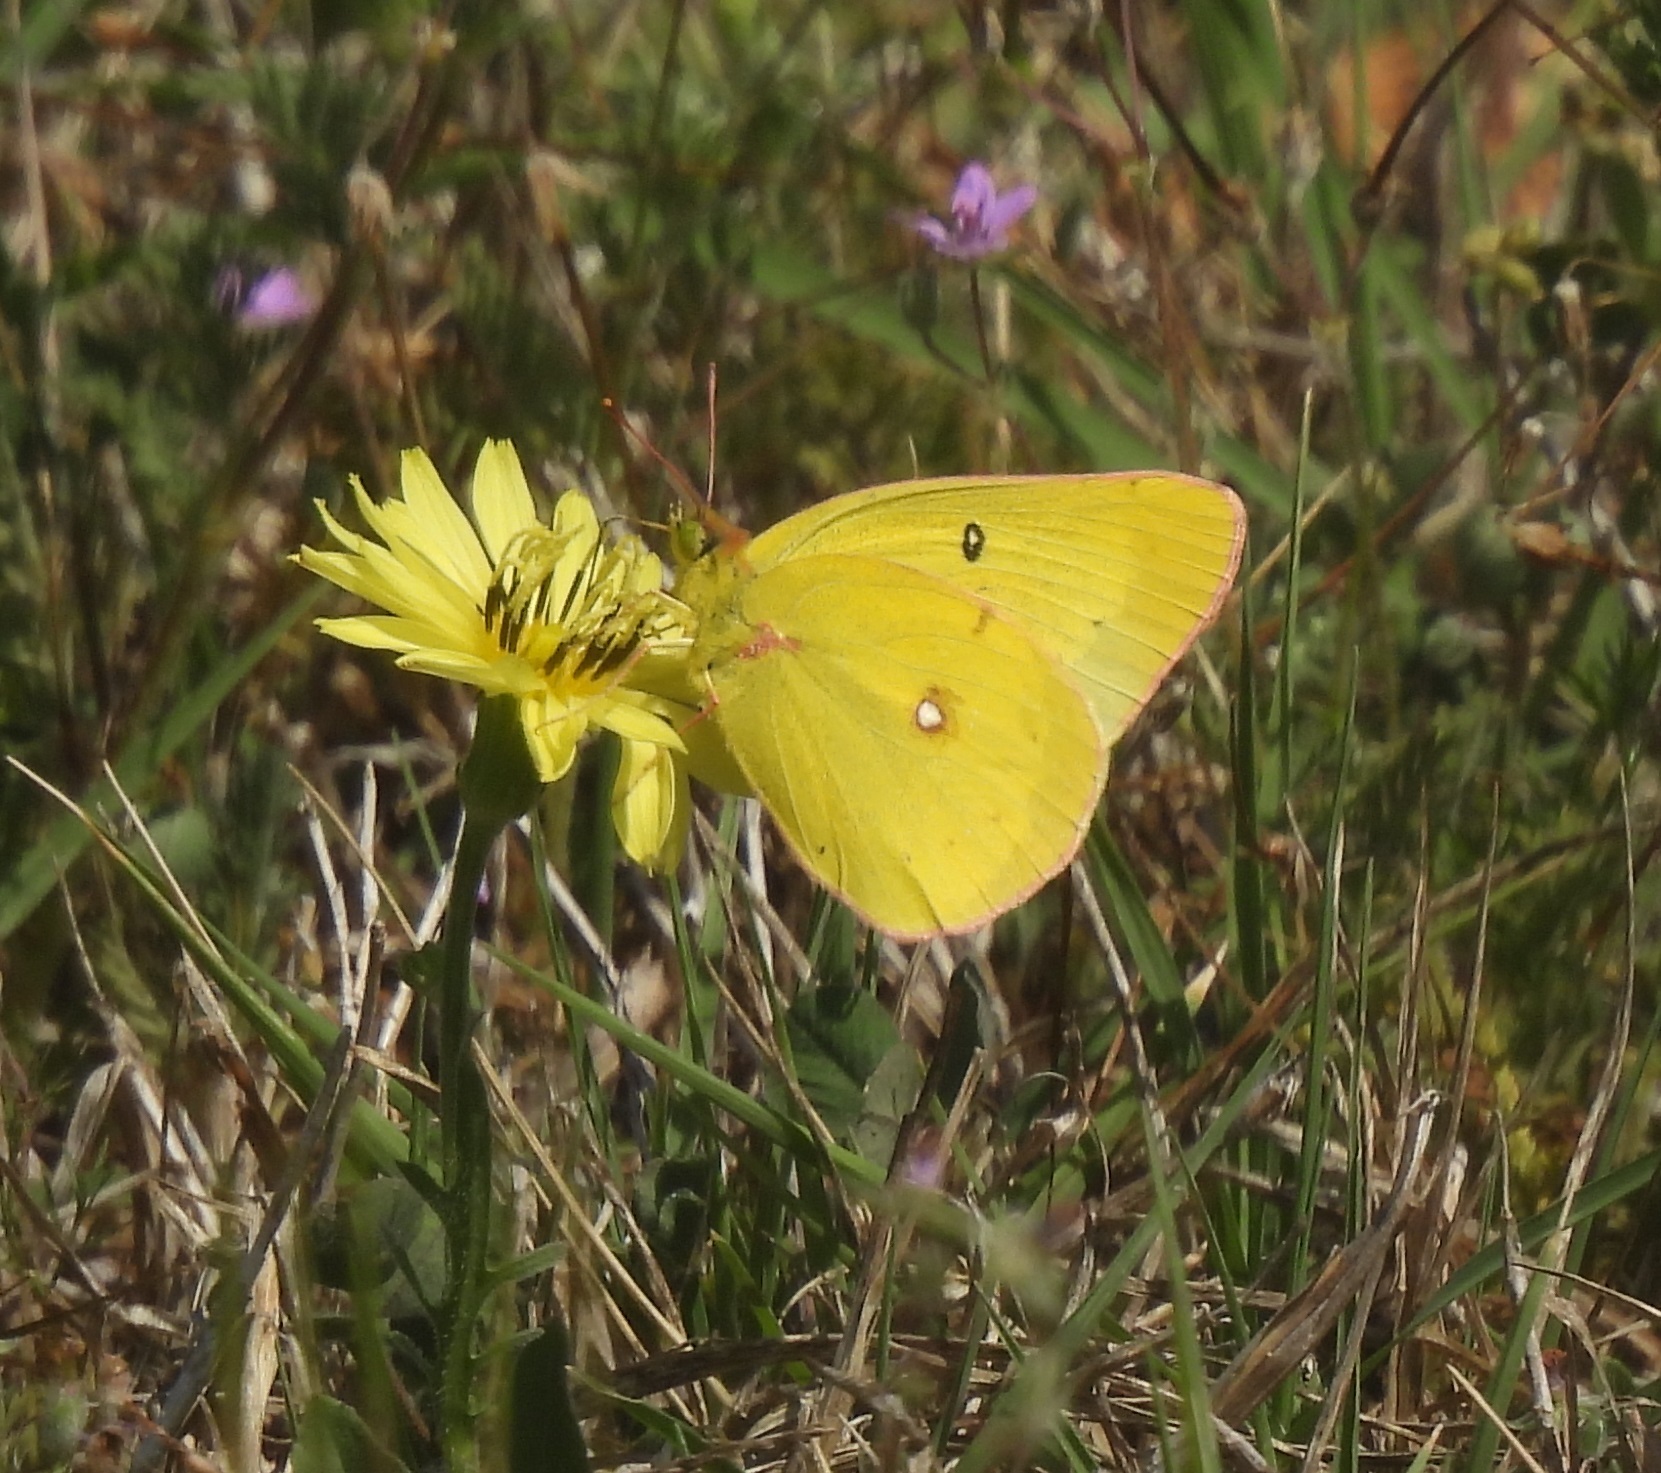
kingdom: Animalia
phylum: Arthropoda
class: Insecta
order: Lepidoptera
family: Pieridae
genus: Colias
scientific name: Colias eurytheme
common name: Alfalfa butterfly
